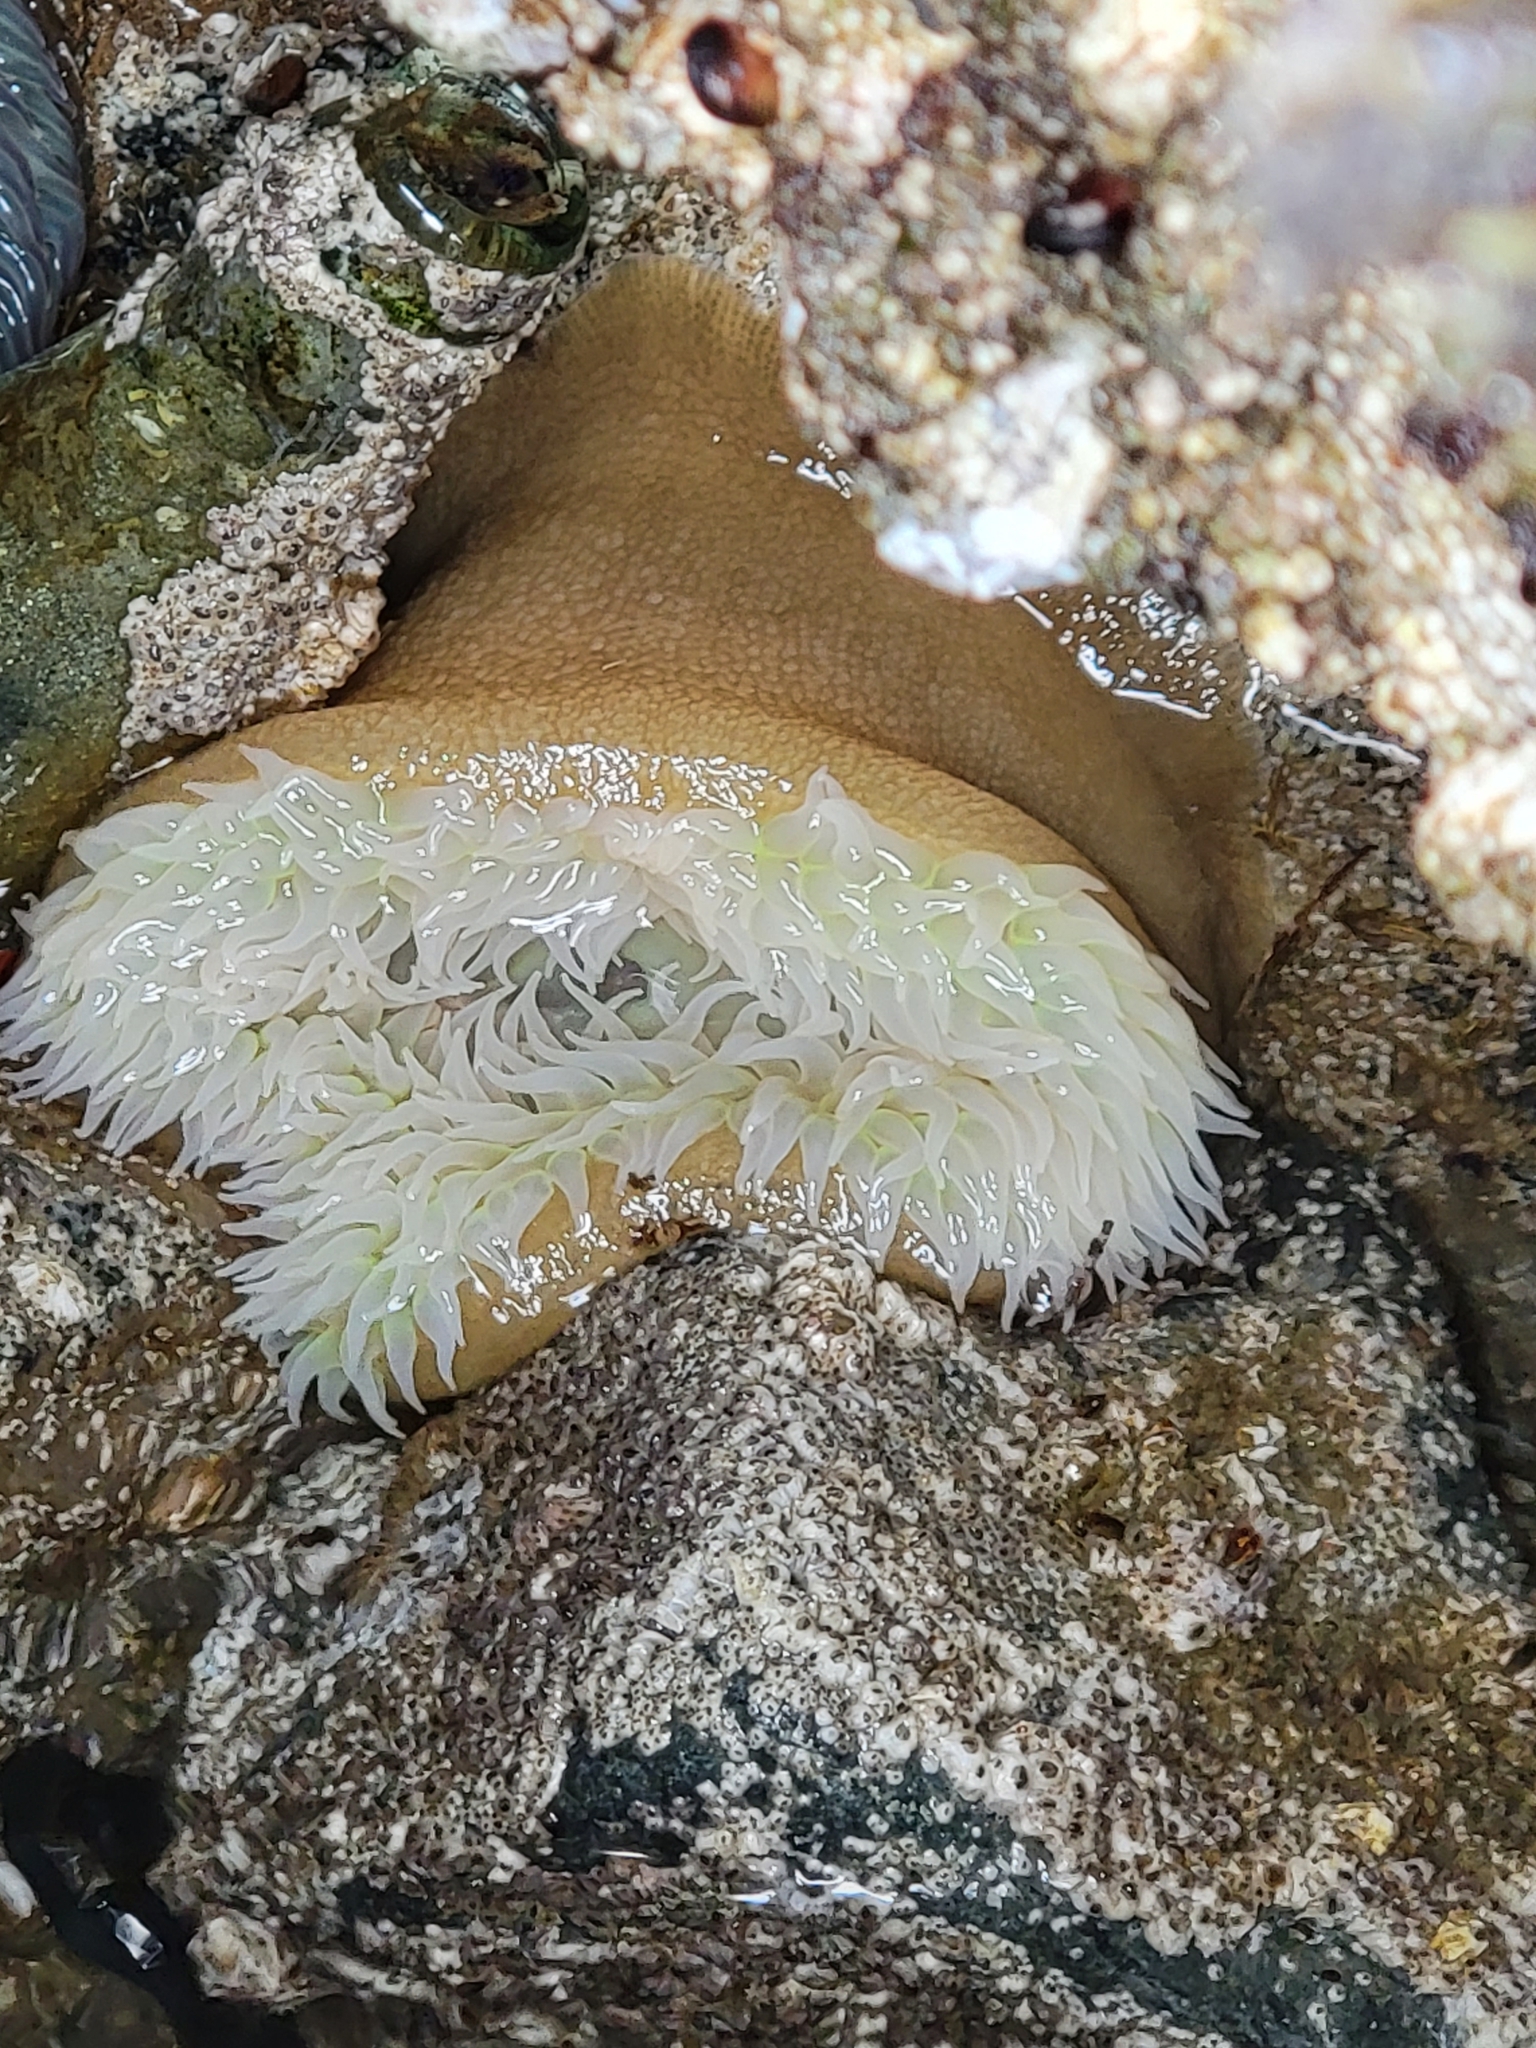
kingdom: Animalia
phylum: Cnidaria
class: Anthozoa
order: Actiniaria
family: Actiniidae
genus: Anthopleura
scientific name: Anthopleura xanthogrammica
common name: Giant green anemone
